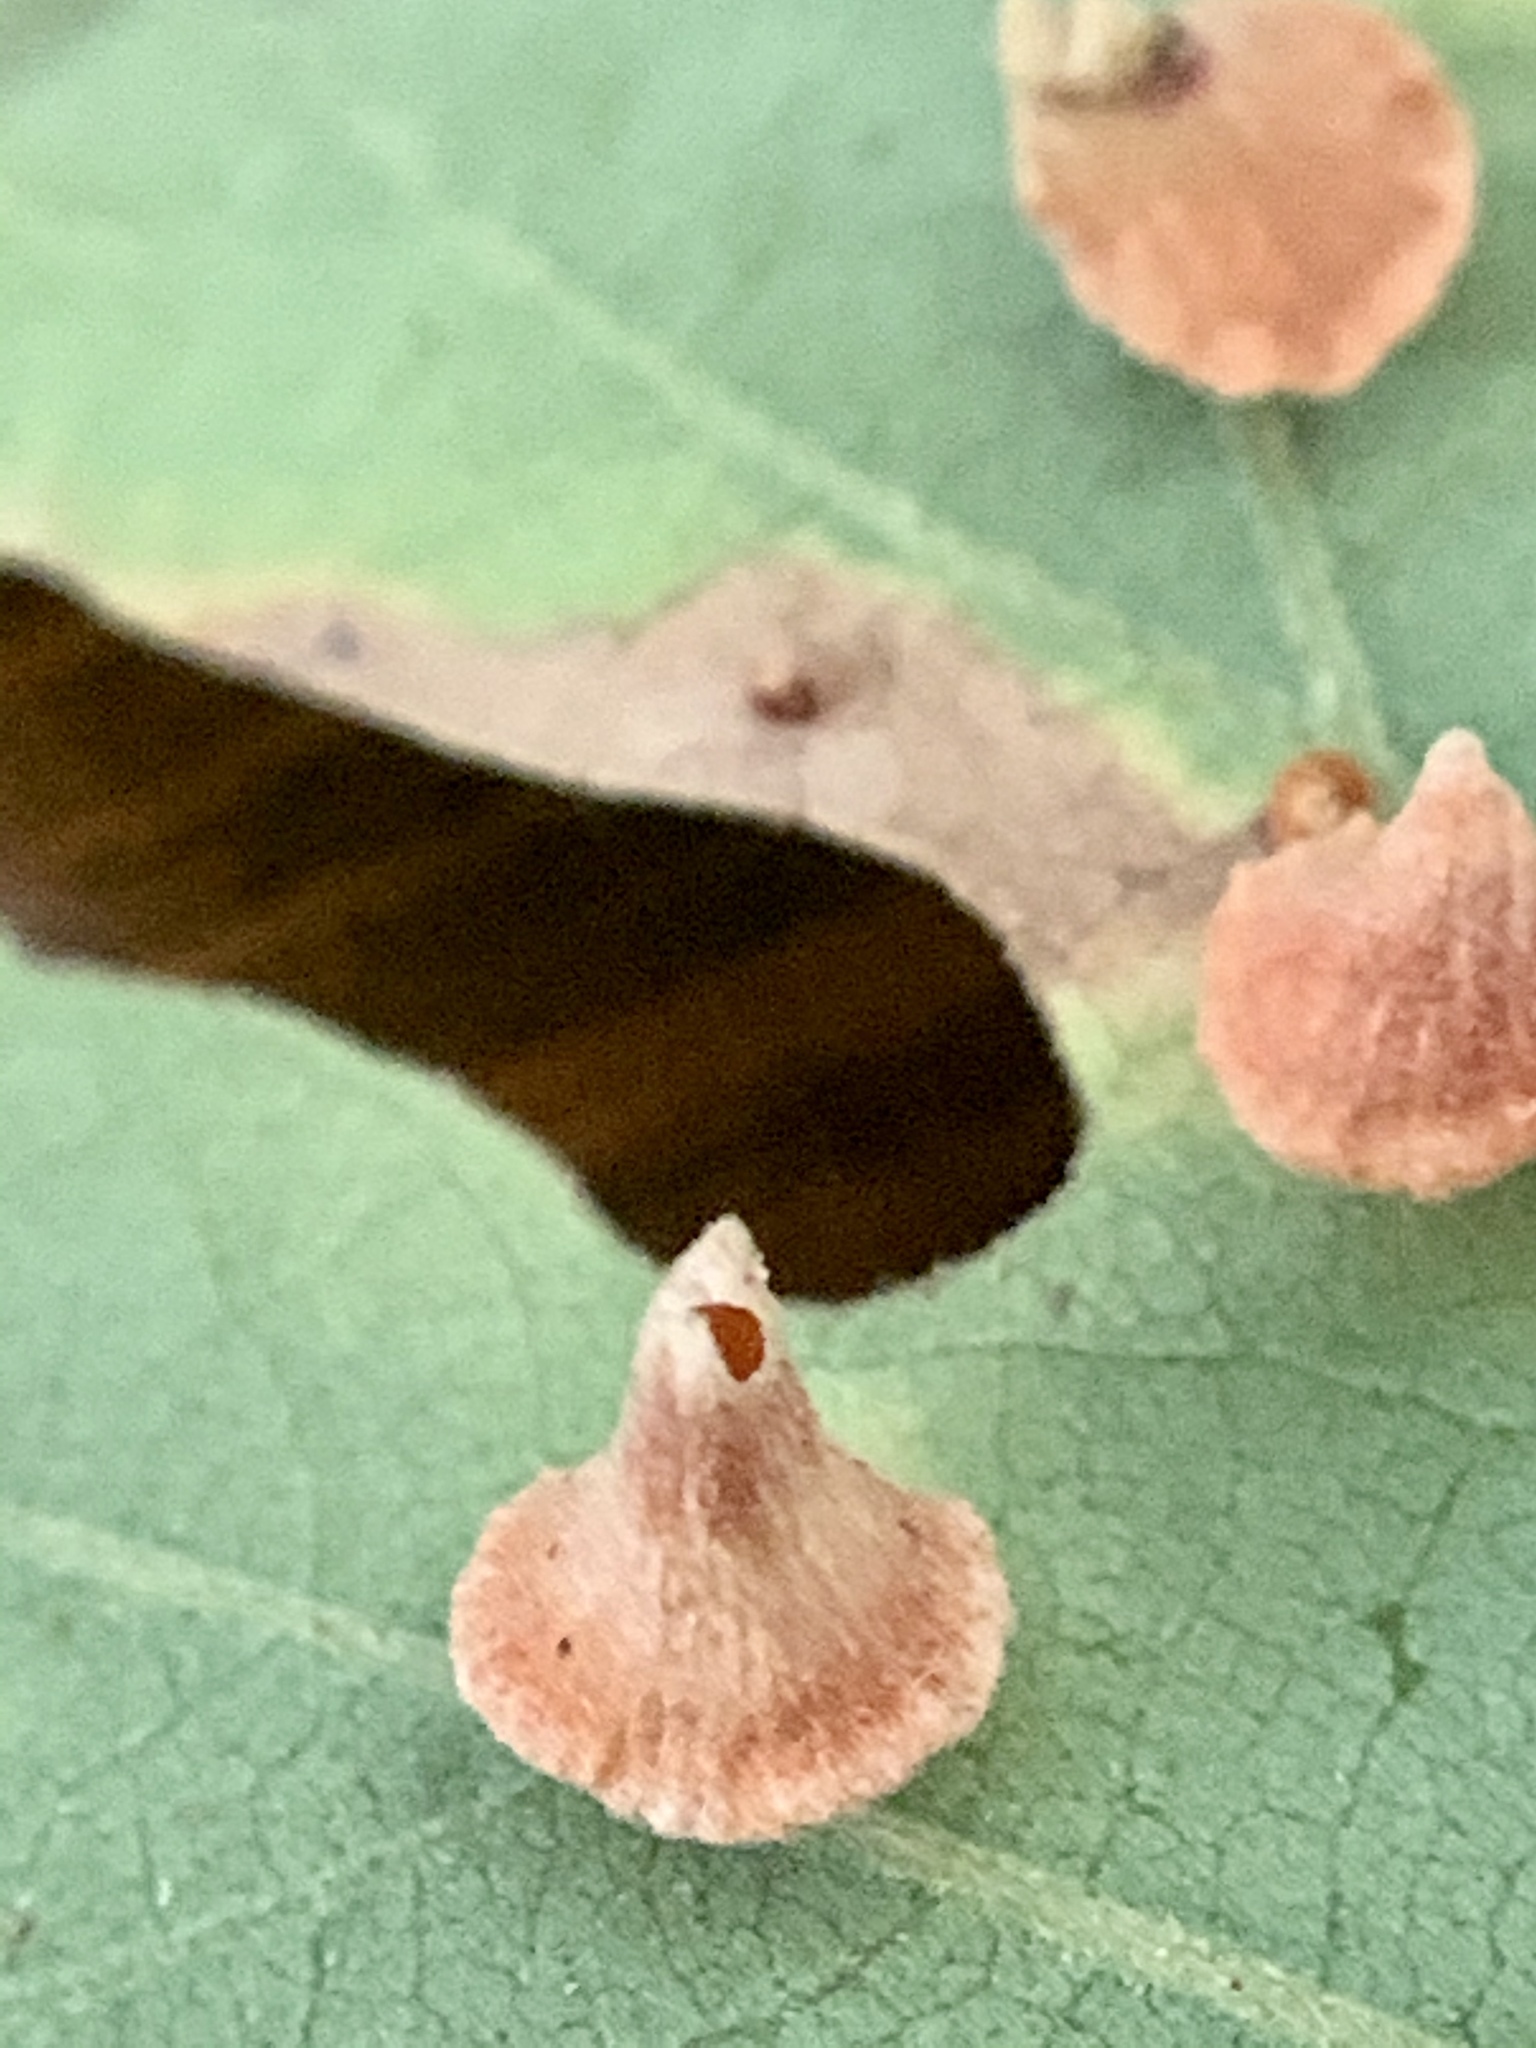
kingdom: Animalia
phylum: Arthropoda
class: Insecta
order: Hymenoptera
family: Cynipidae
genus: Andricus
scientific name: Andricus
